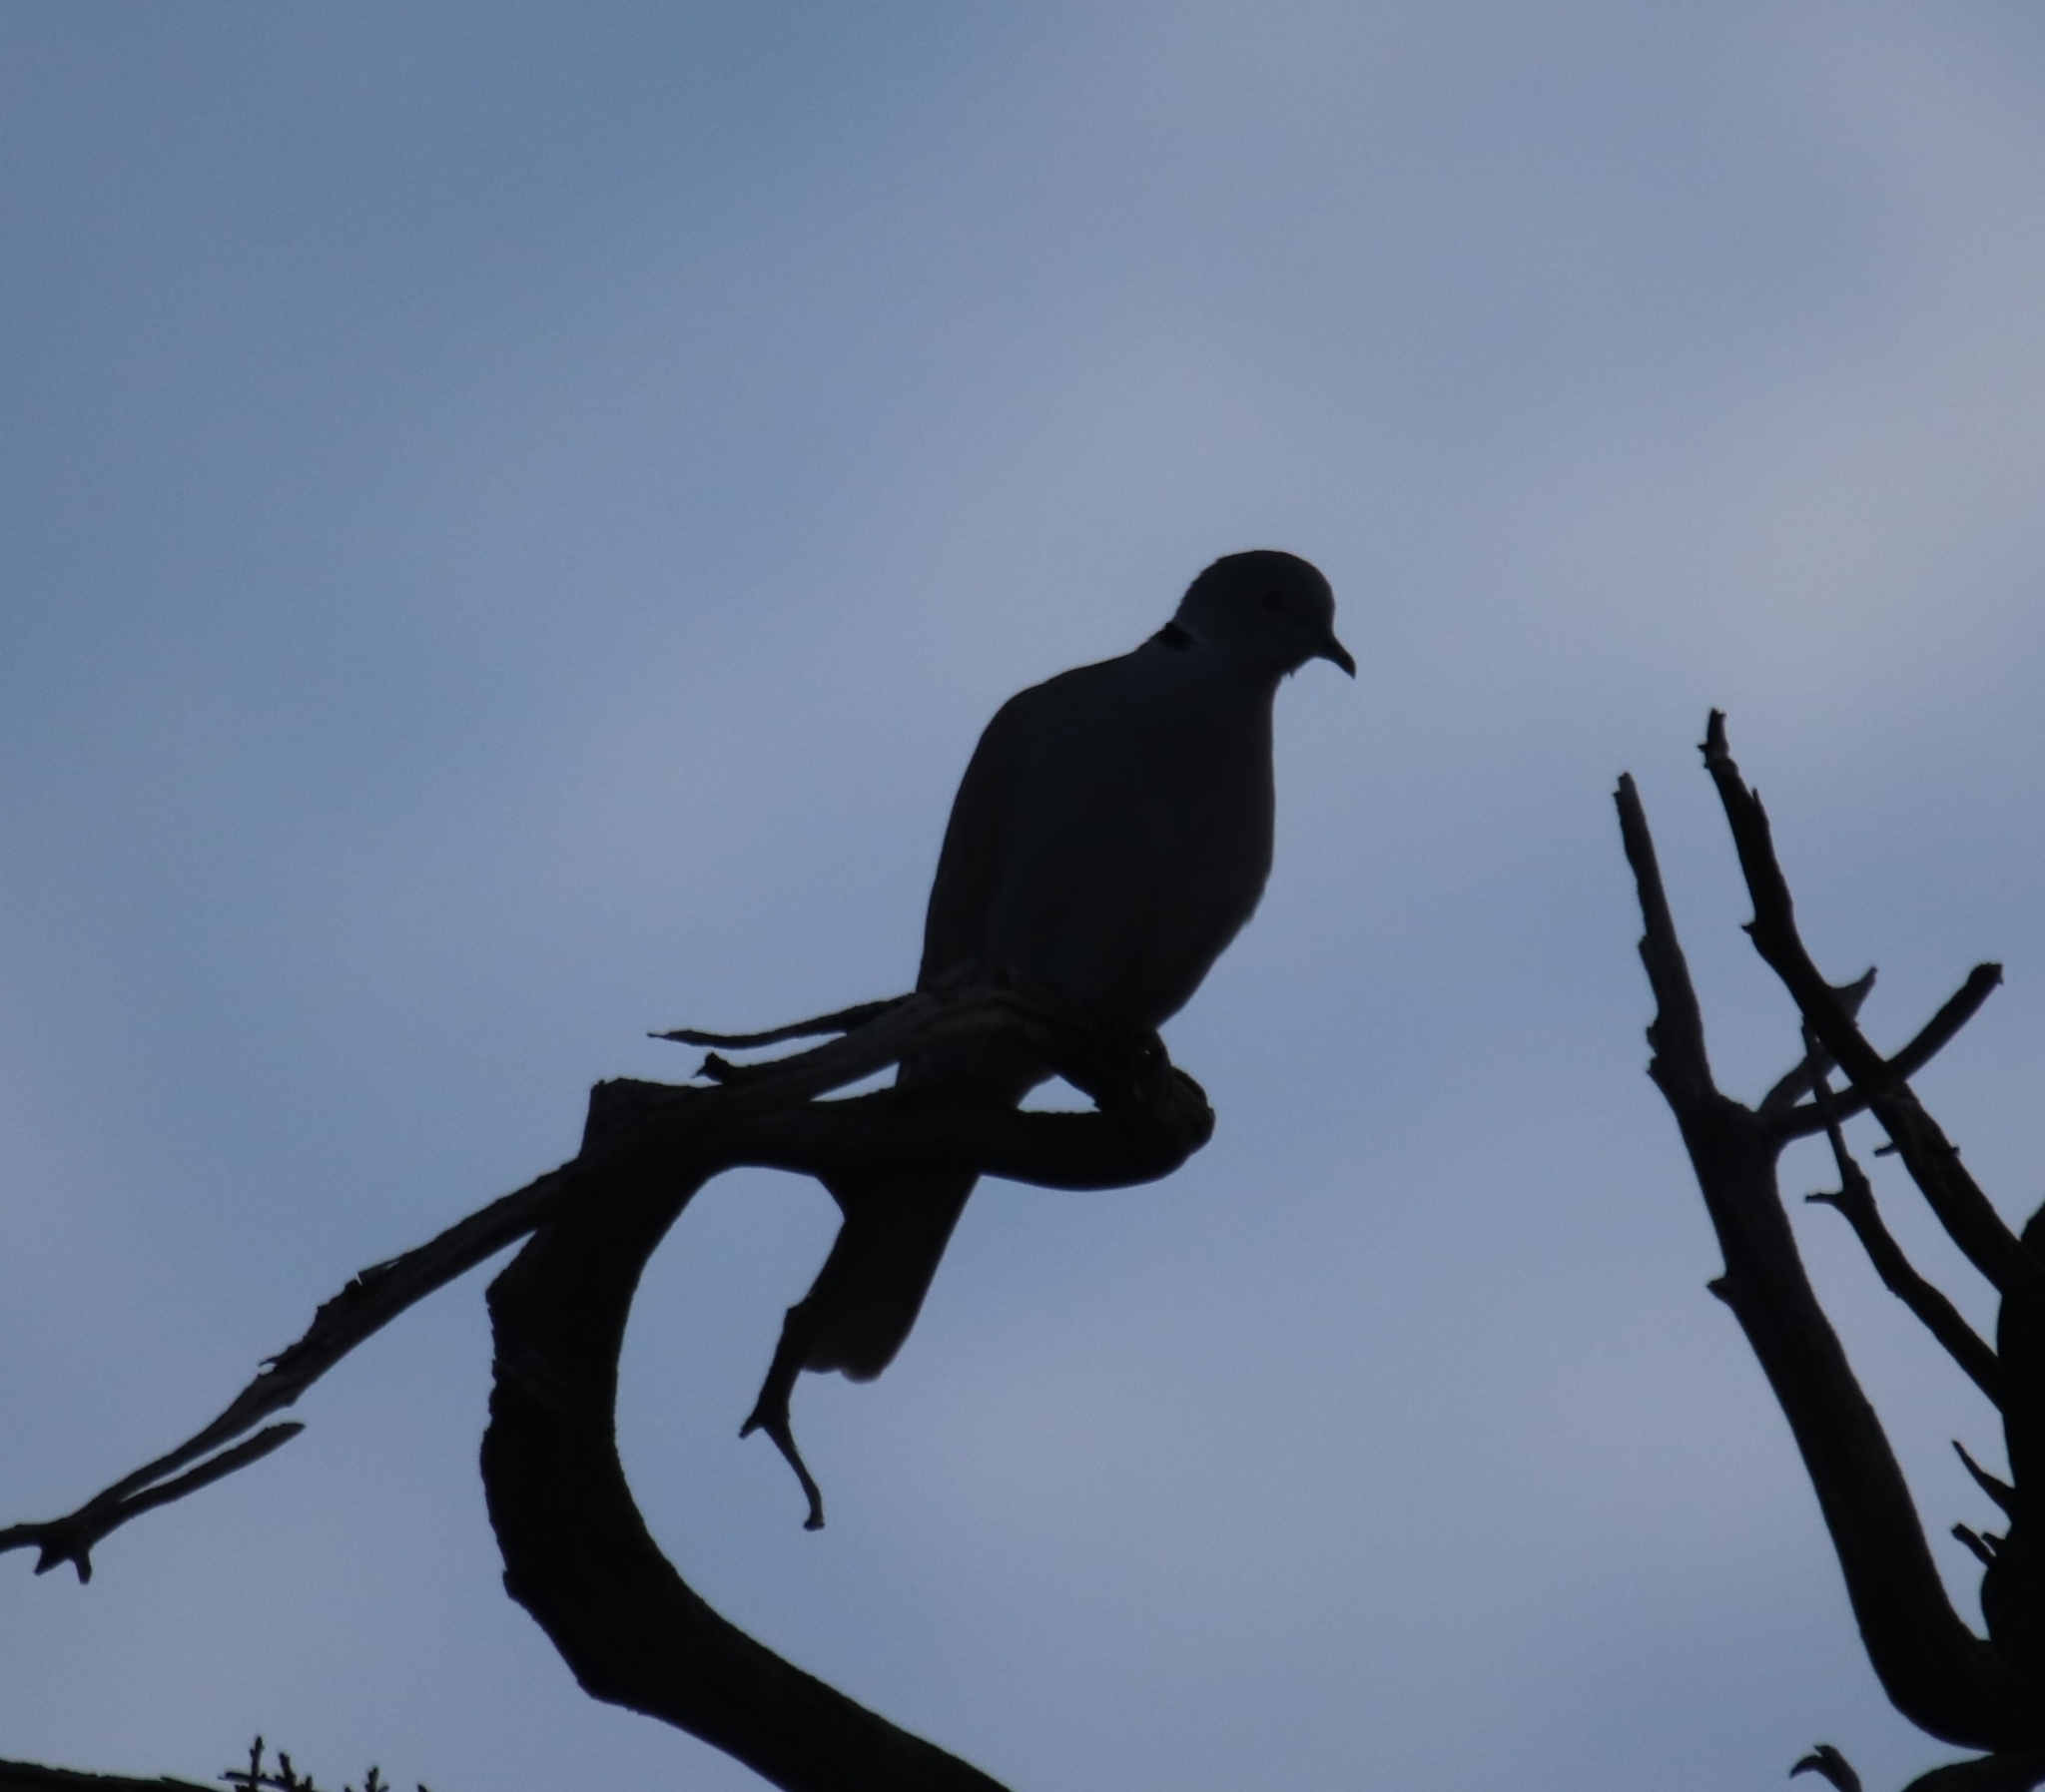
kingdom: Animalia
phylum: Chordata
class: Aves
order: Columbiformes
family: Columbidae
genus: Streptopelia
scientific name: Streptopelia decaocto
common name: Eurasian collared dove
